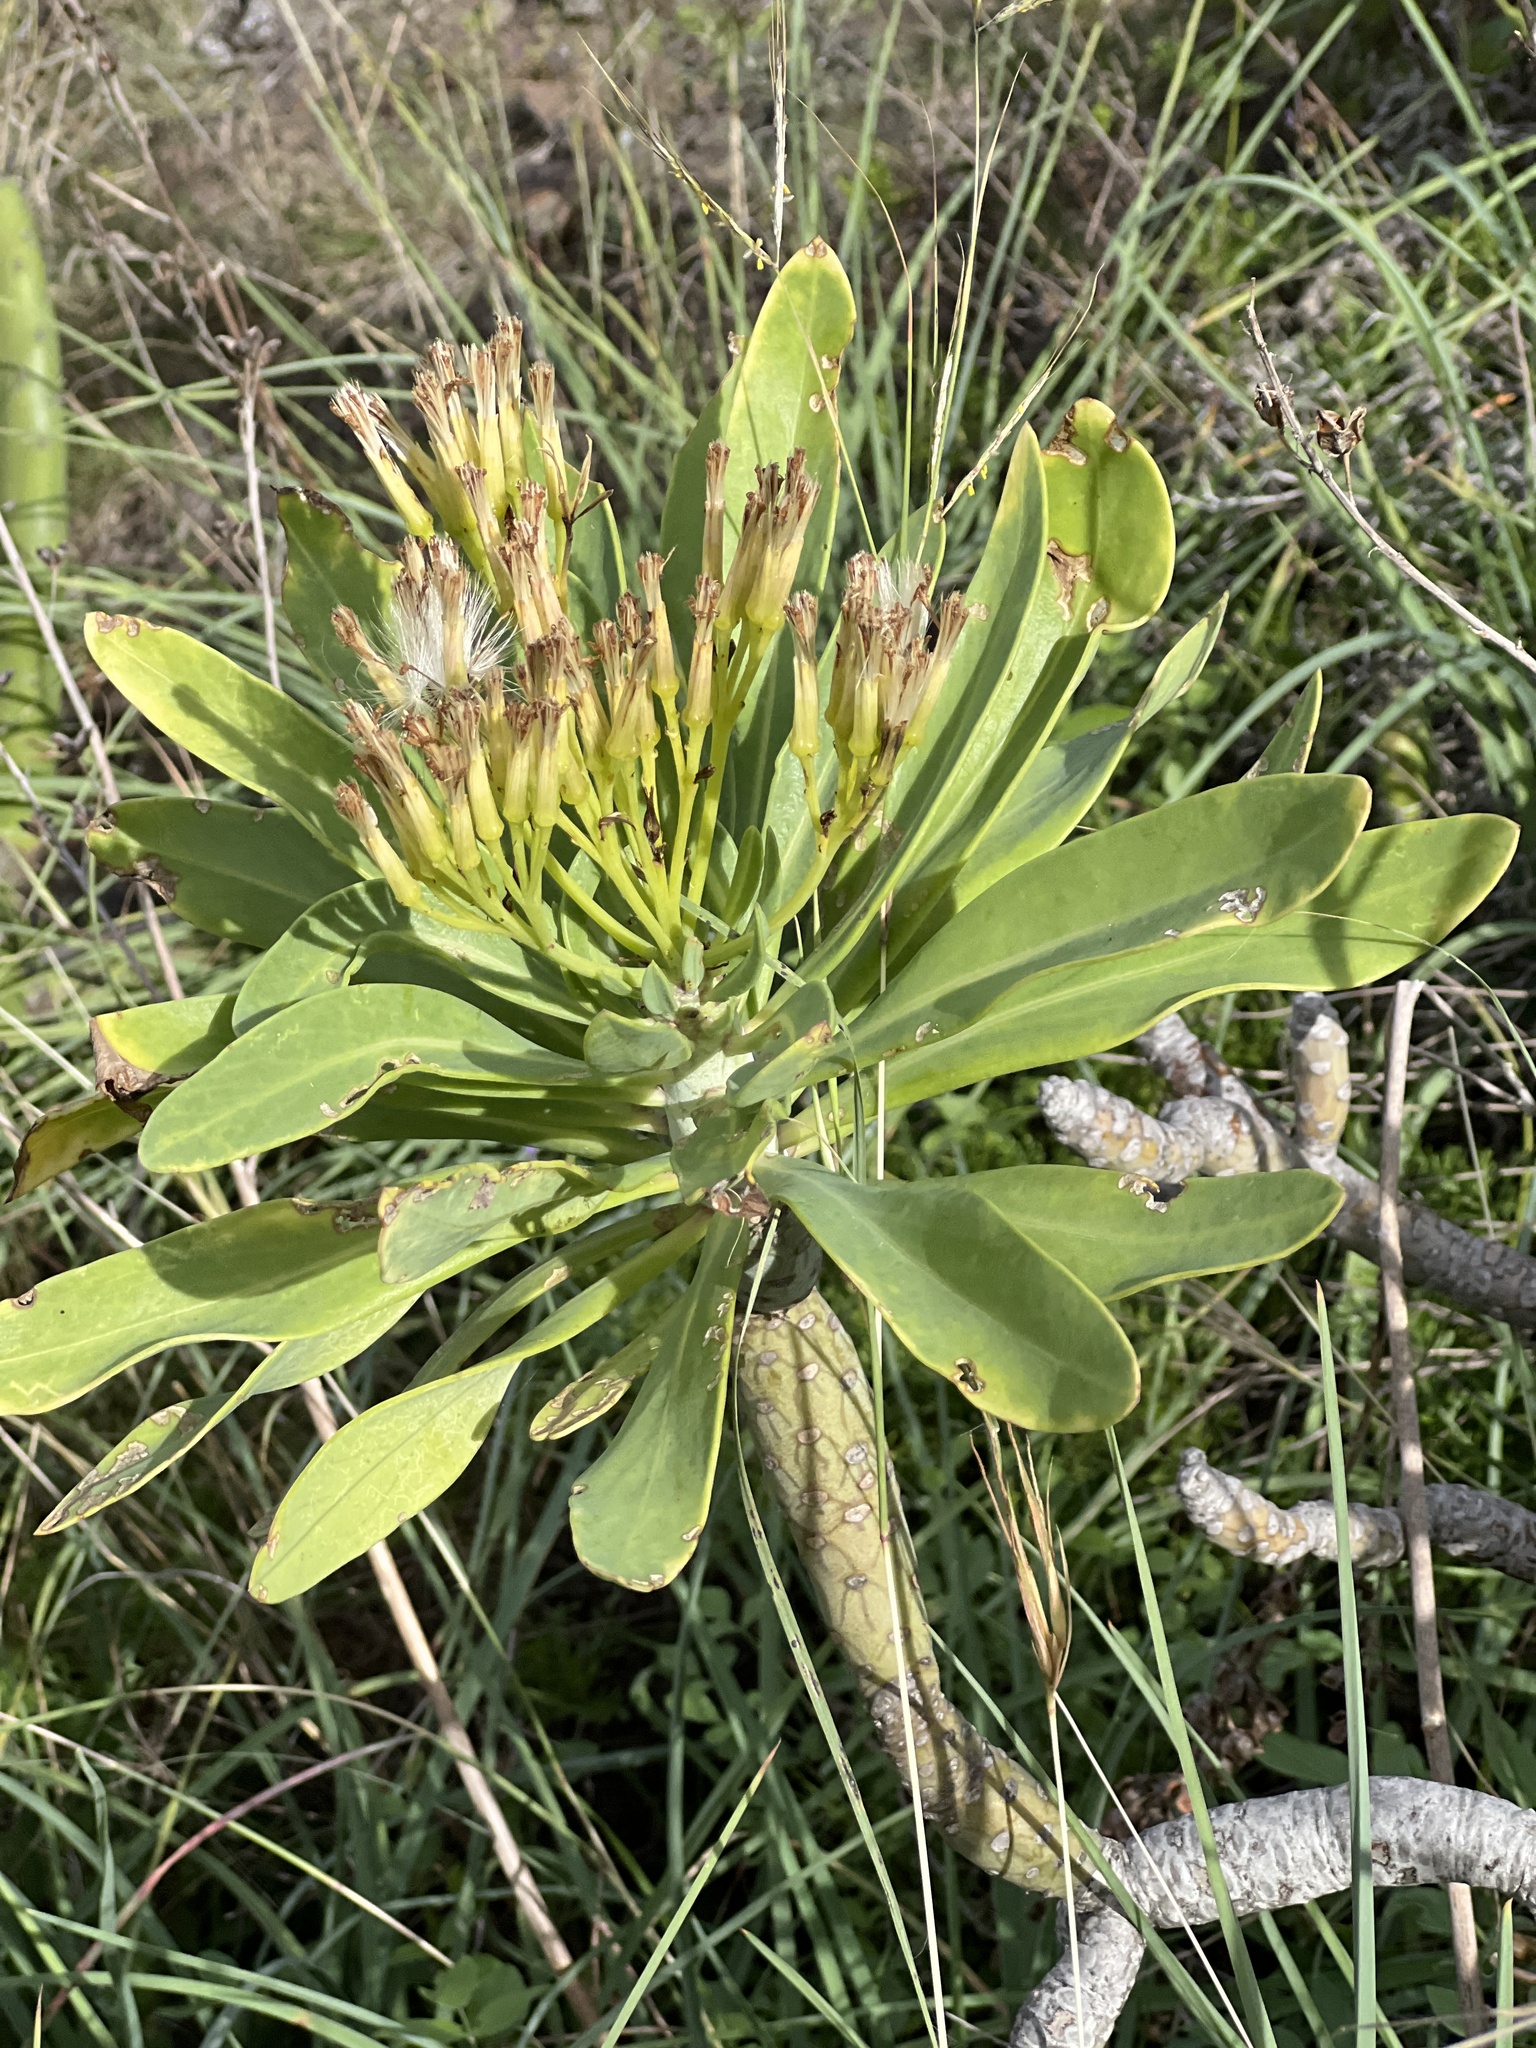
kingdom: Plantae
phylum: Tracheophyta
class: Magnoliopsida
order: Asterales
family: Asteraceae
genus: Kleinia
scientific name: Kleinia neriifolia
